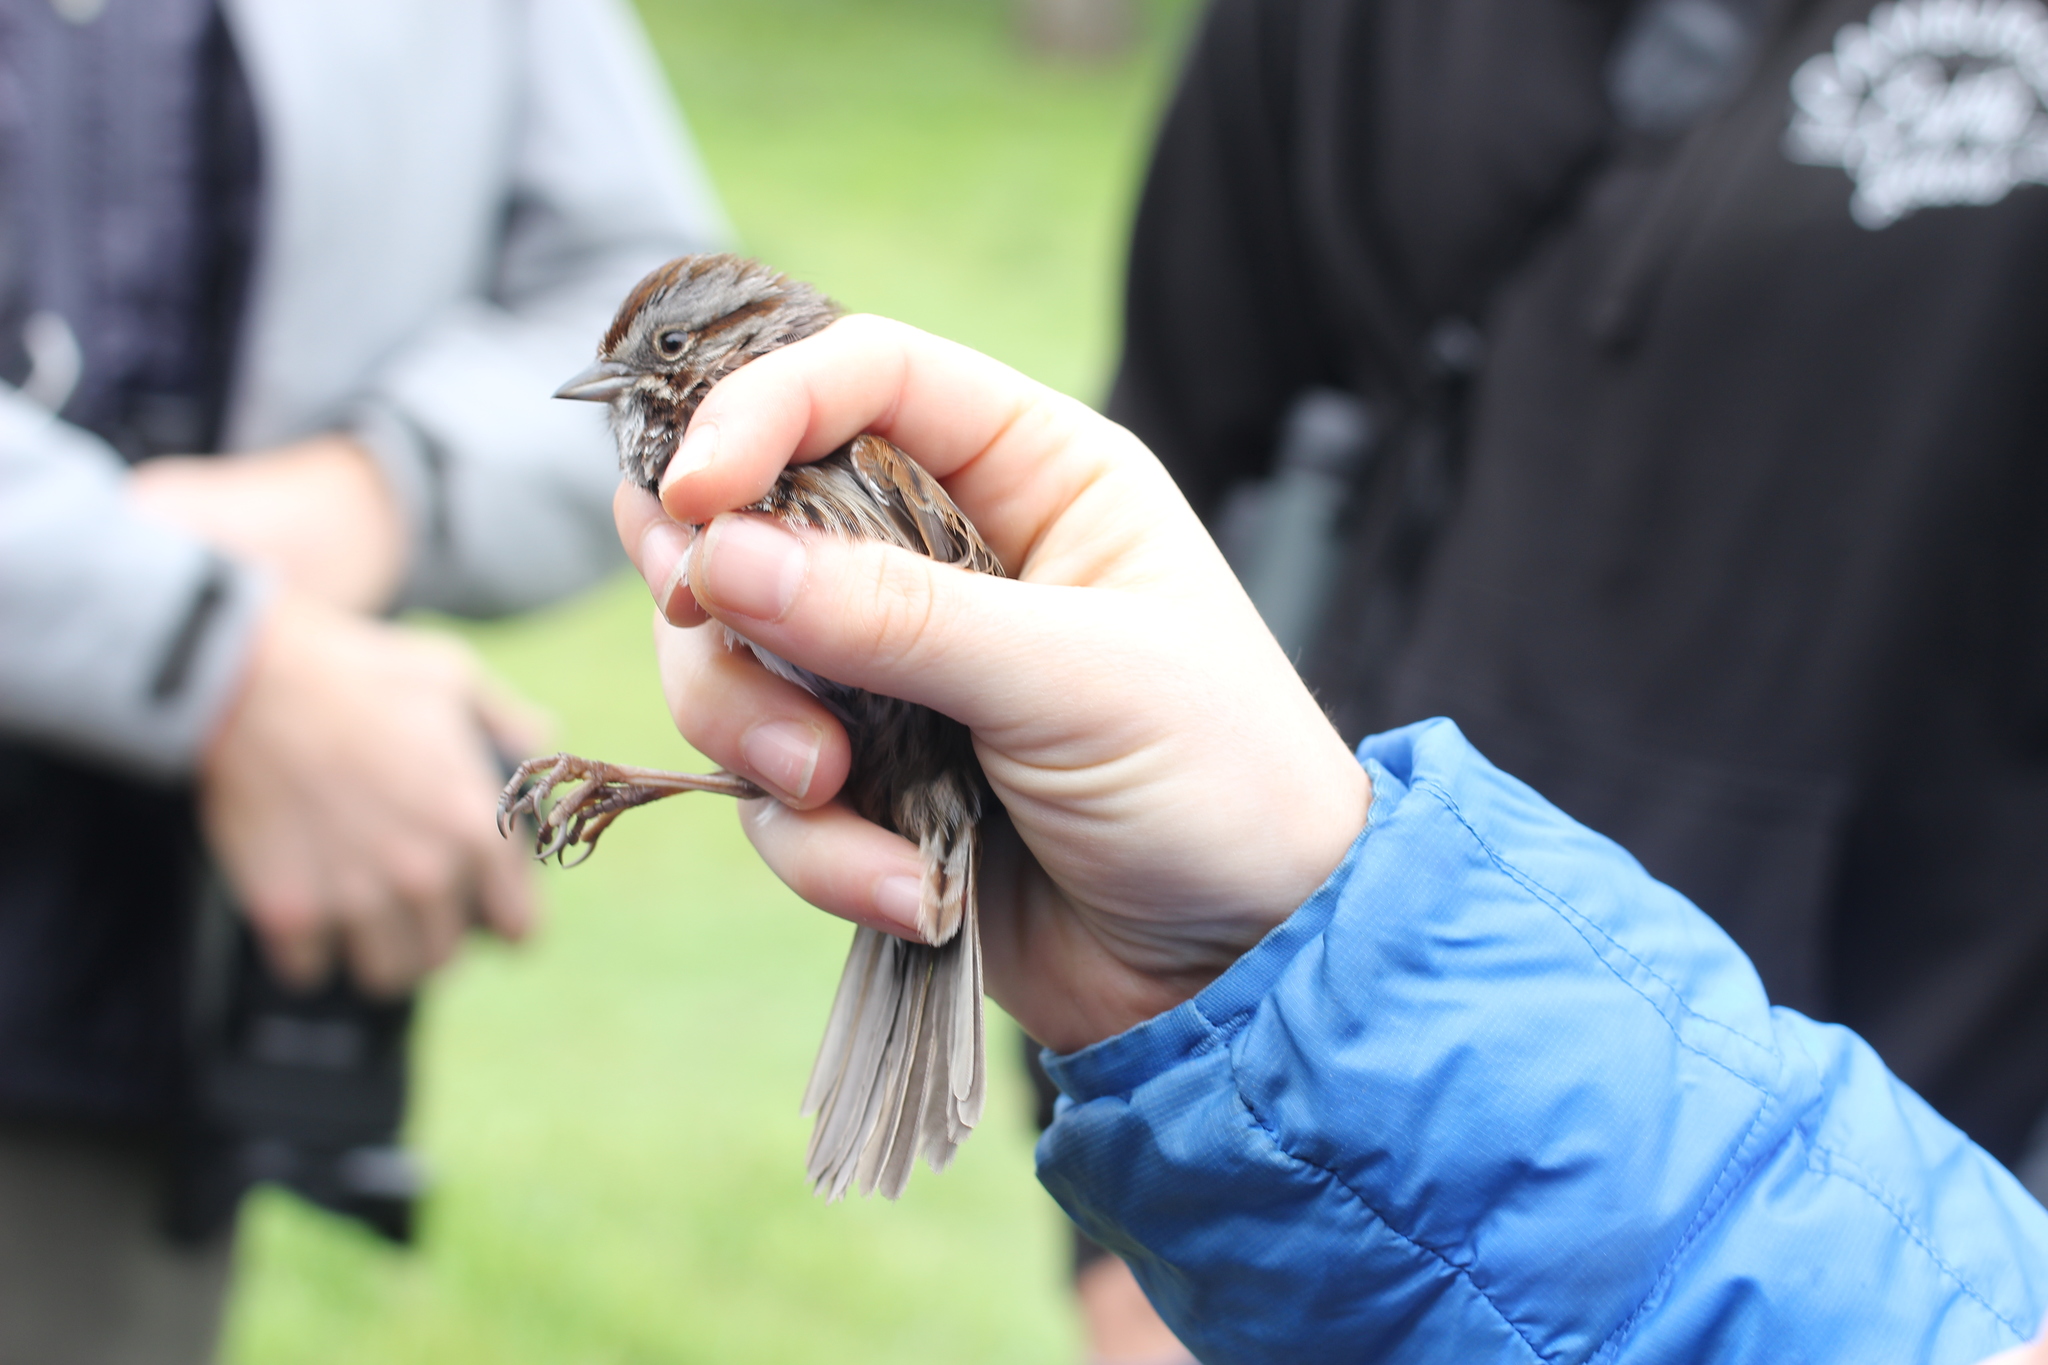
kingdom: Animalia
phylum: Chordata
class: Aves
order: Passeriformes
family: Passerellidae
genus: Melospiza
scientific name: Melospiza melodia
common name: Song sparrow
